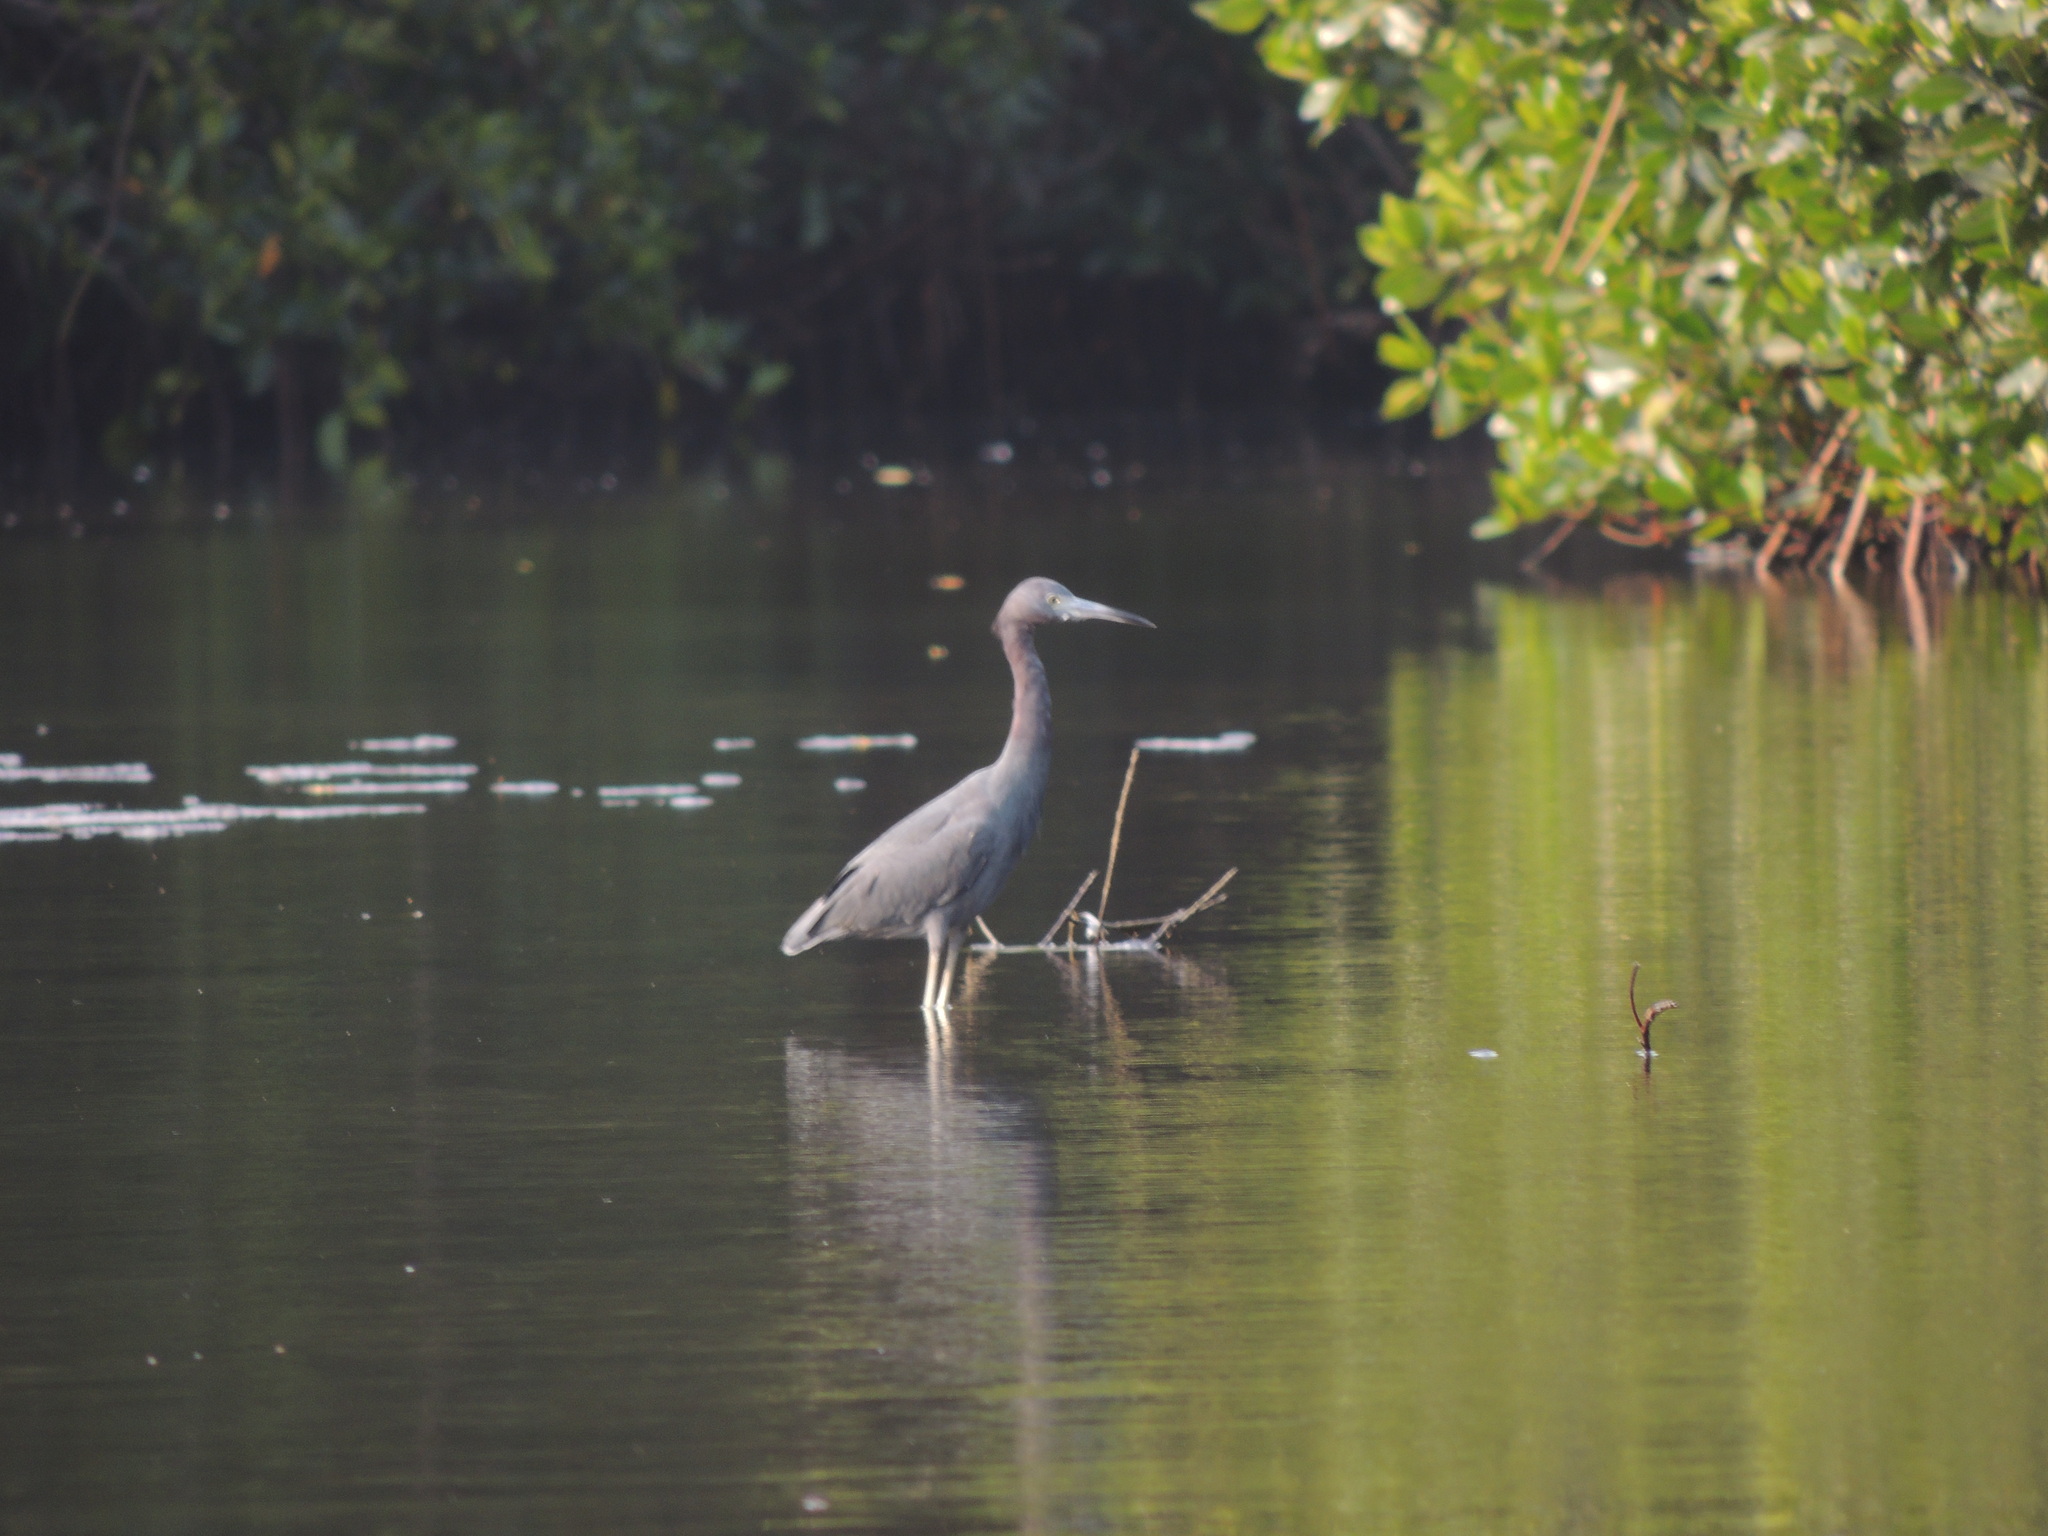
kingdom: Animalia
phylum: Chordata
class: Aves
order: Pelecaniformes
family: Ardeidae
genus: Egretta
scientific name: Egretta caerulea
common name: Little blue heron
